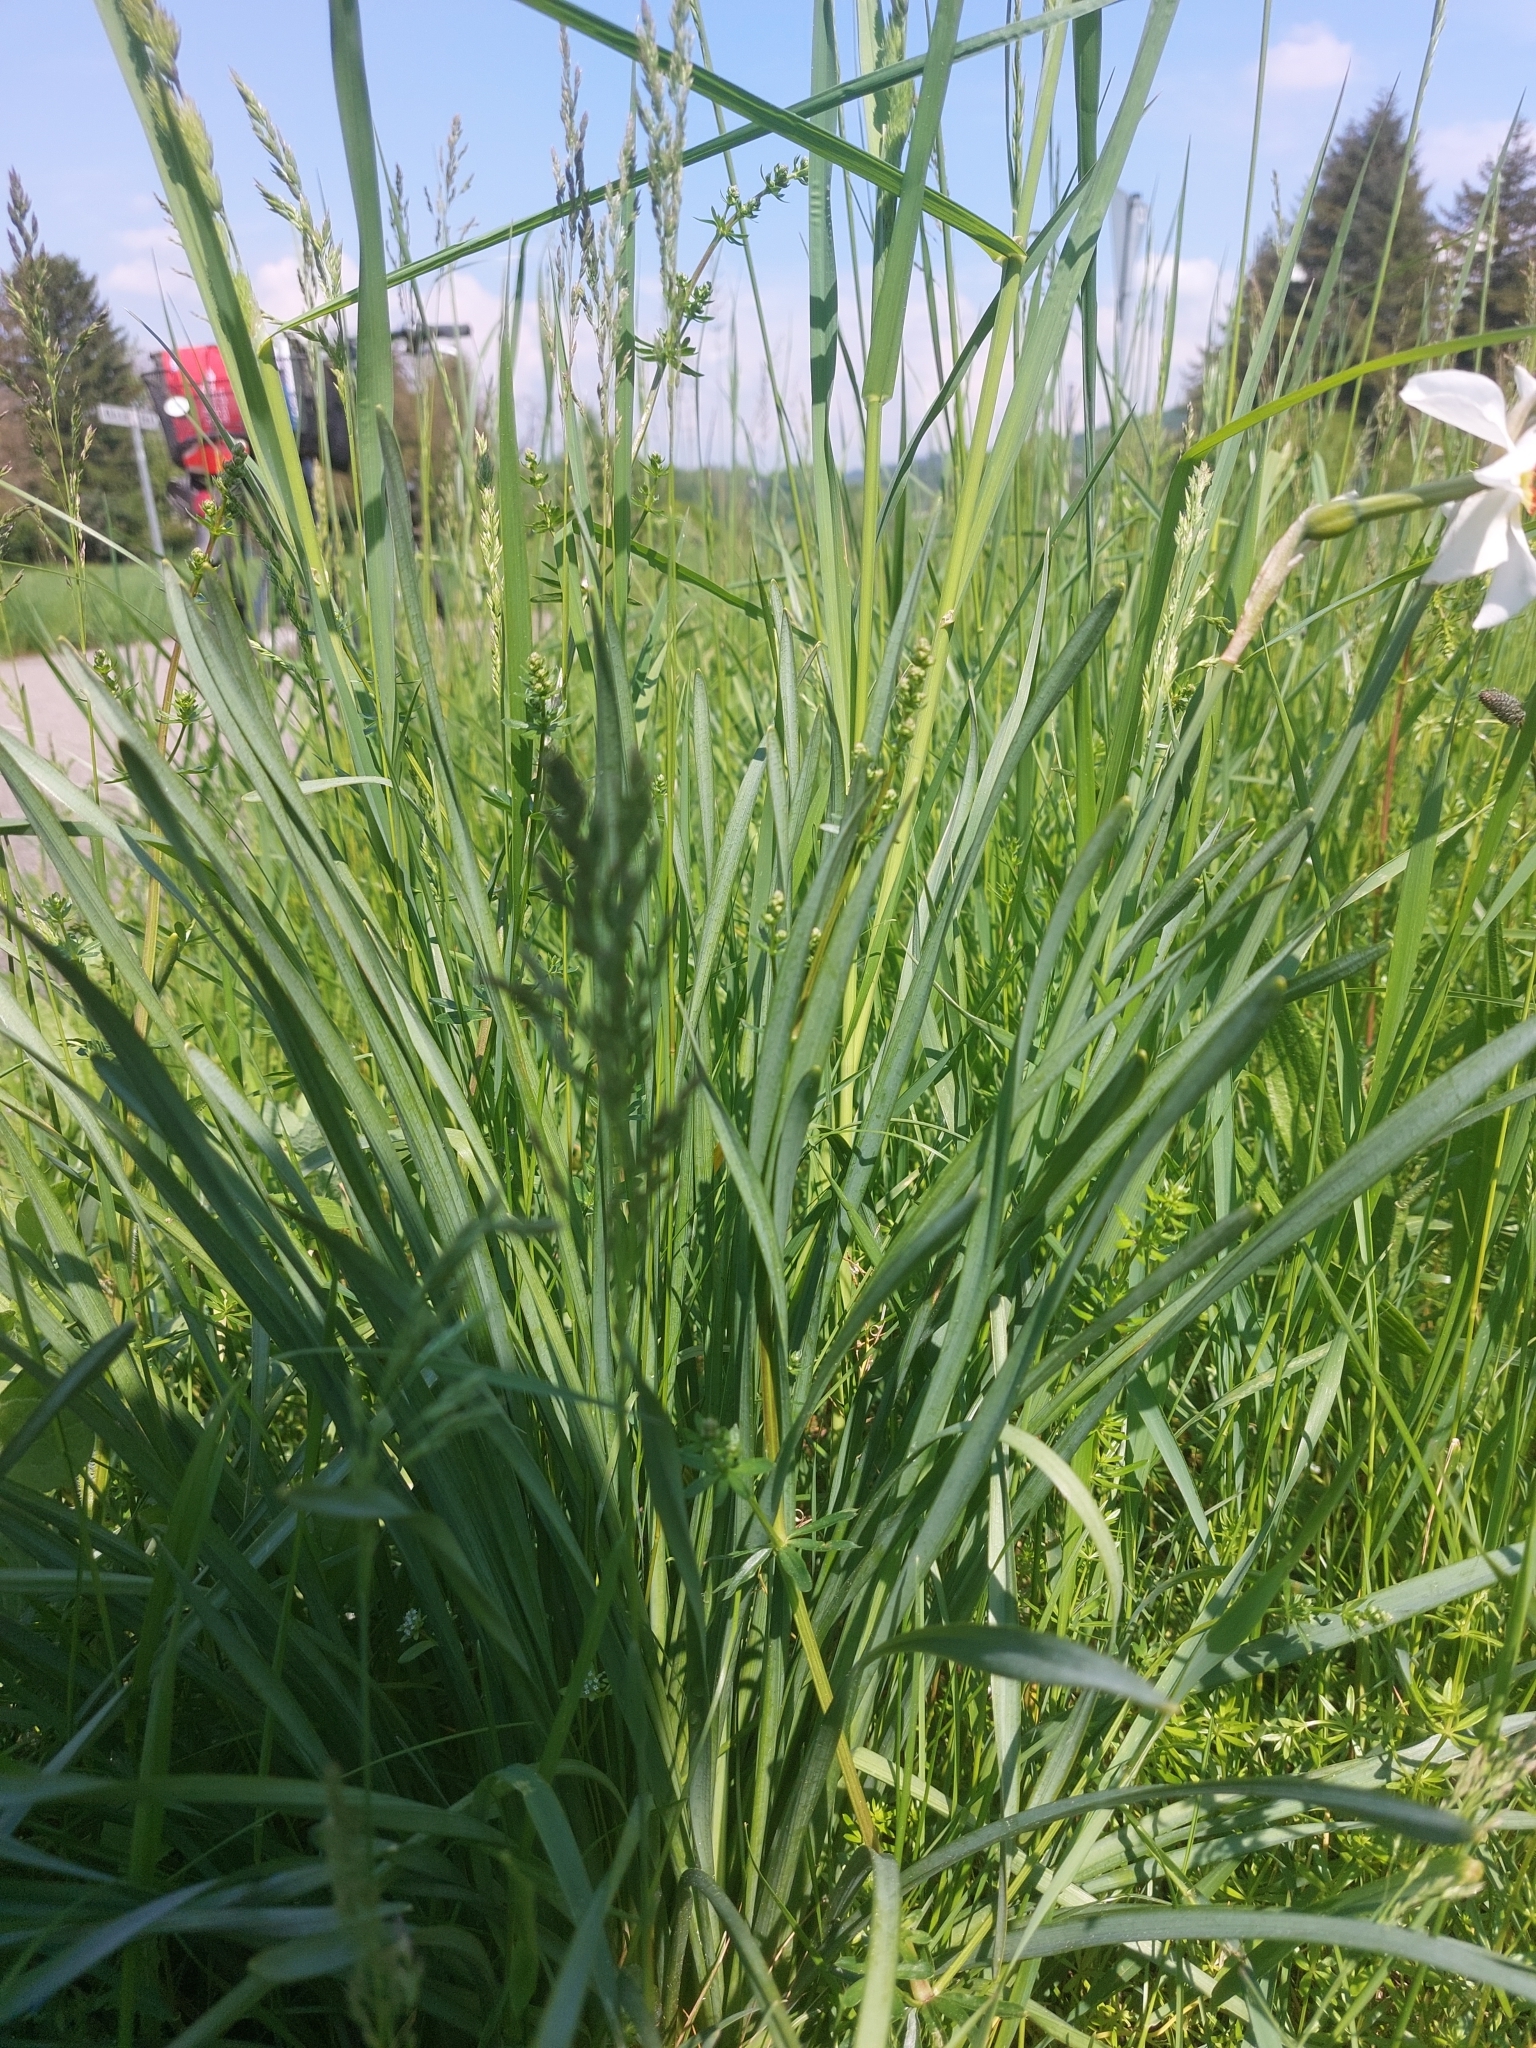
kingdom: Plantae
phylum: Tracheophyta
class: Liliopsida
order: Asparagales
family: Amaryllidaceae
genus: Narcissus
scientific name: Narcissus poeticus
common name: Pheasant's-eye daffodil
